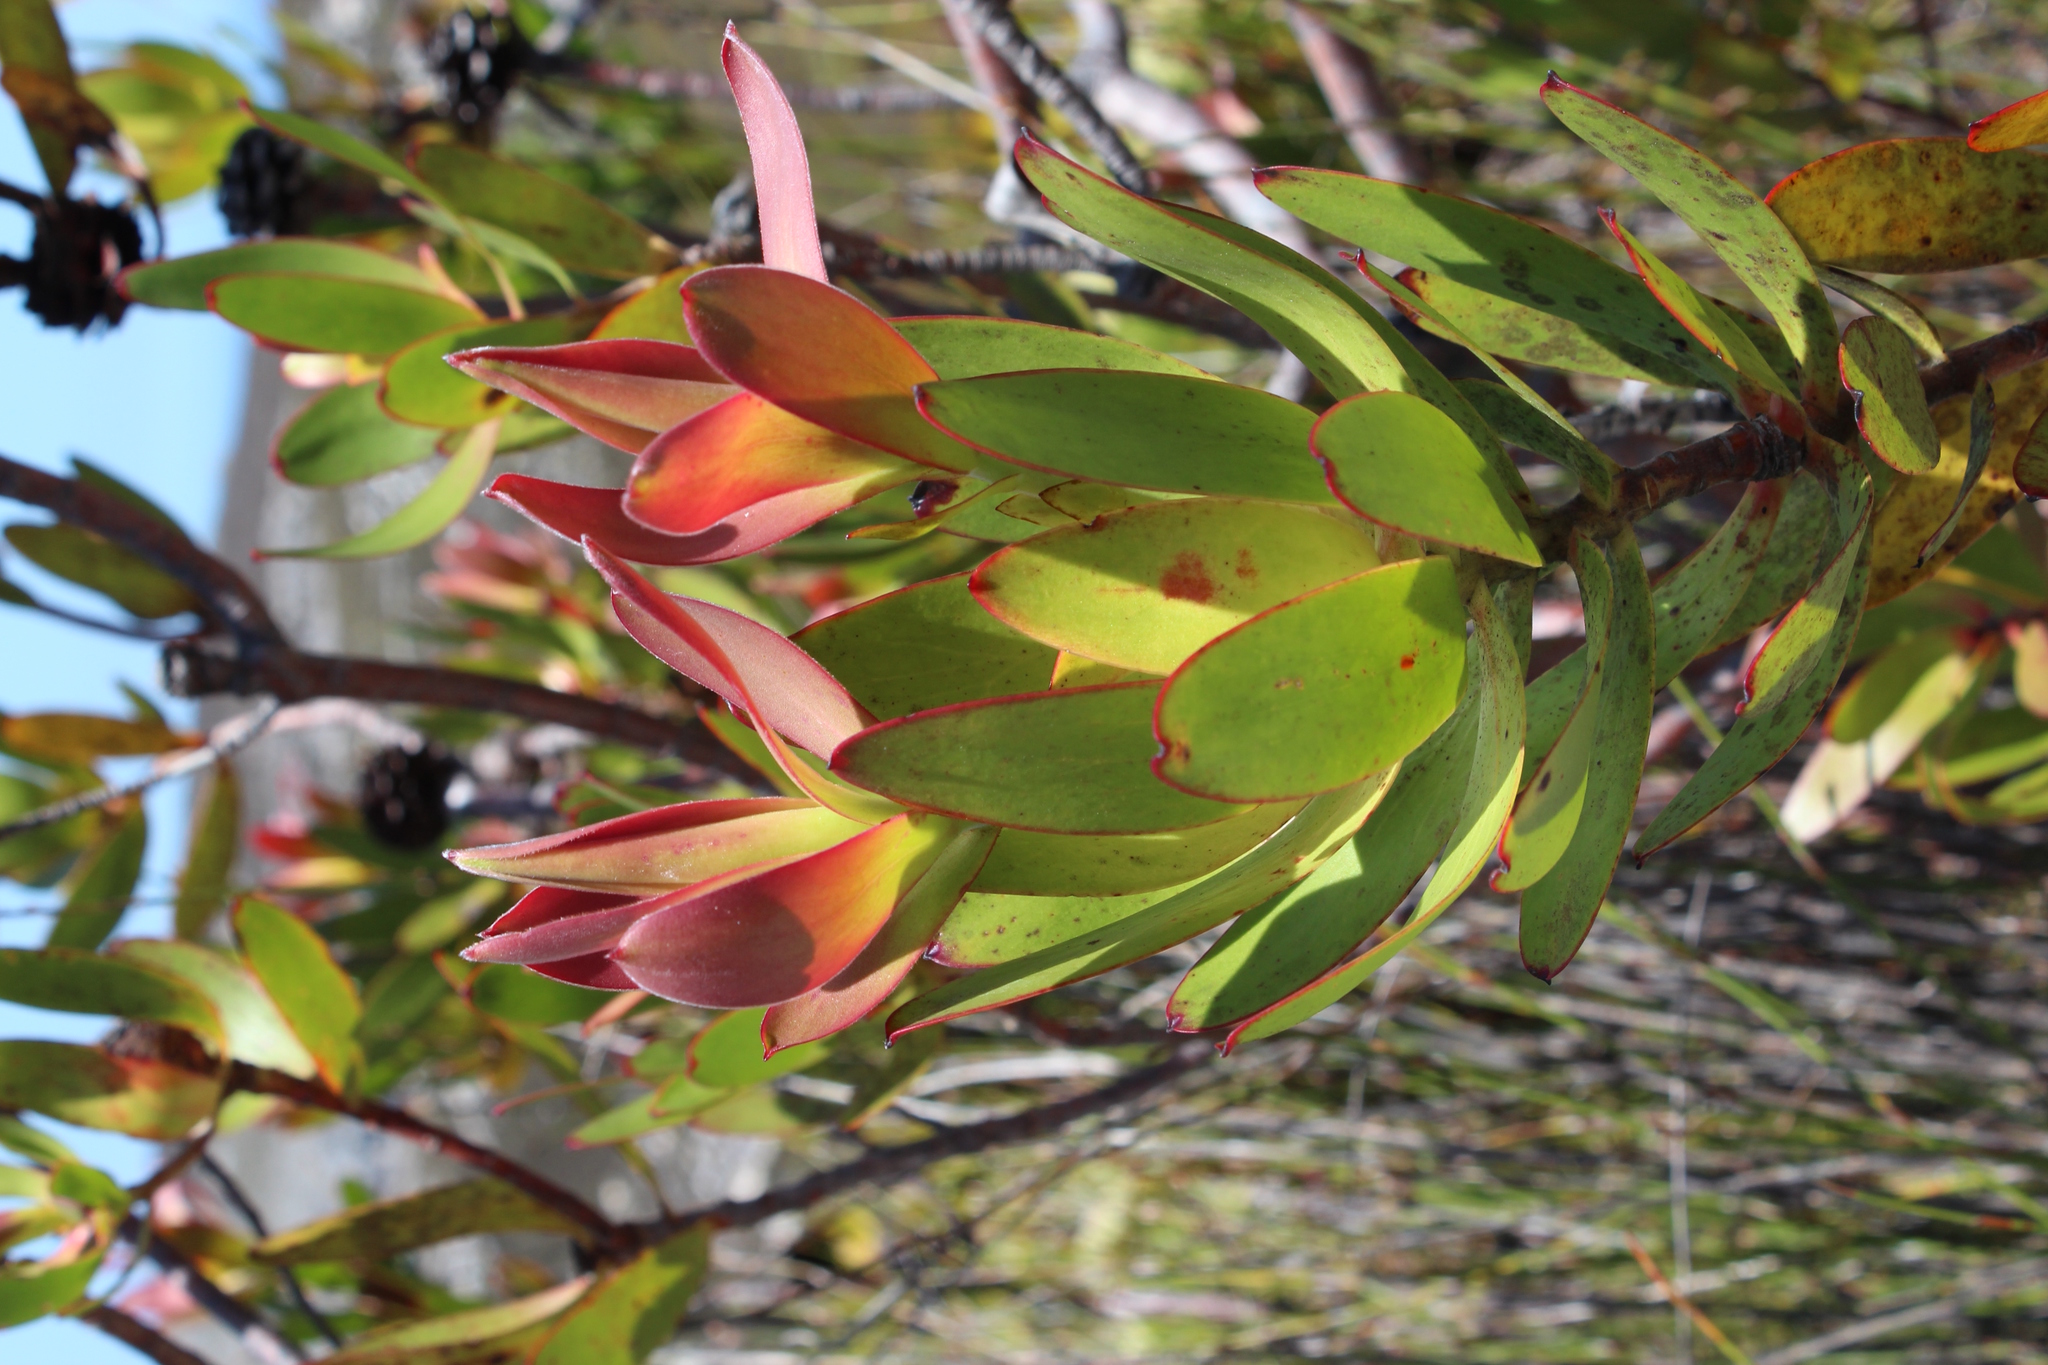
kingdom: Plantae
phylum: Tracheophyta
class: Magnoliopsida
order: Proteales
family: Proteaceae
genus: Leucadendron
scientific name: Leucadendron gandogeri
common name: Broad-leaf conebush
